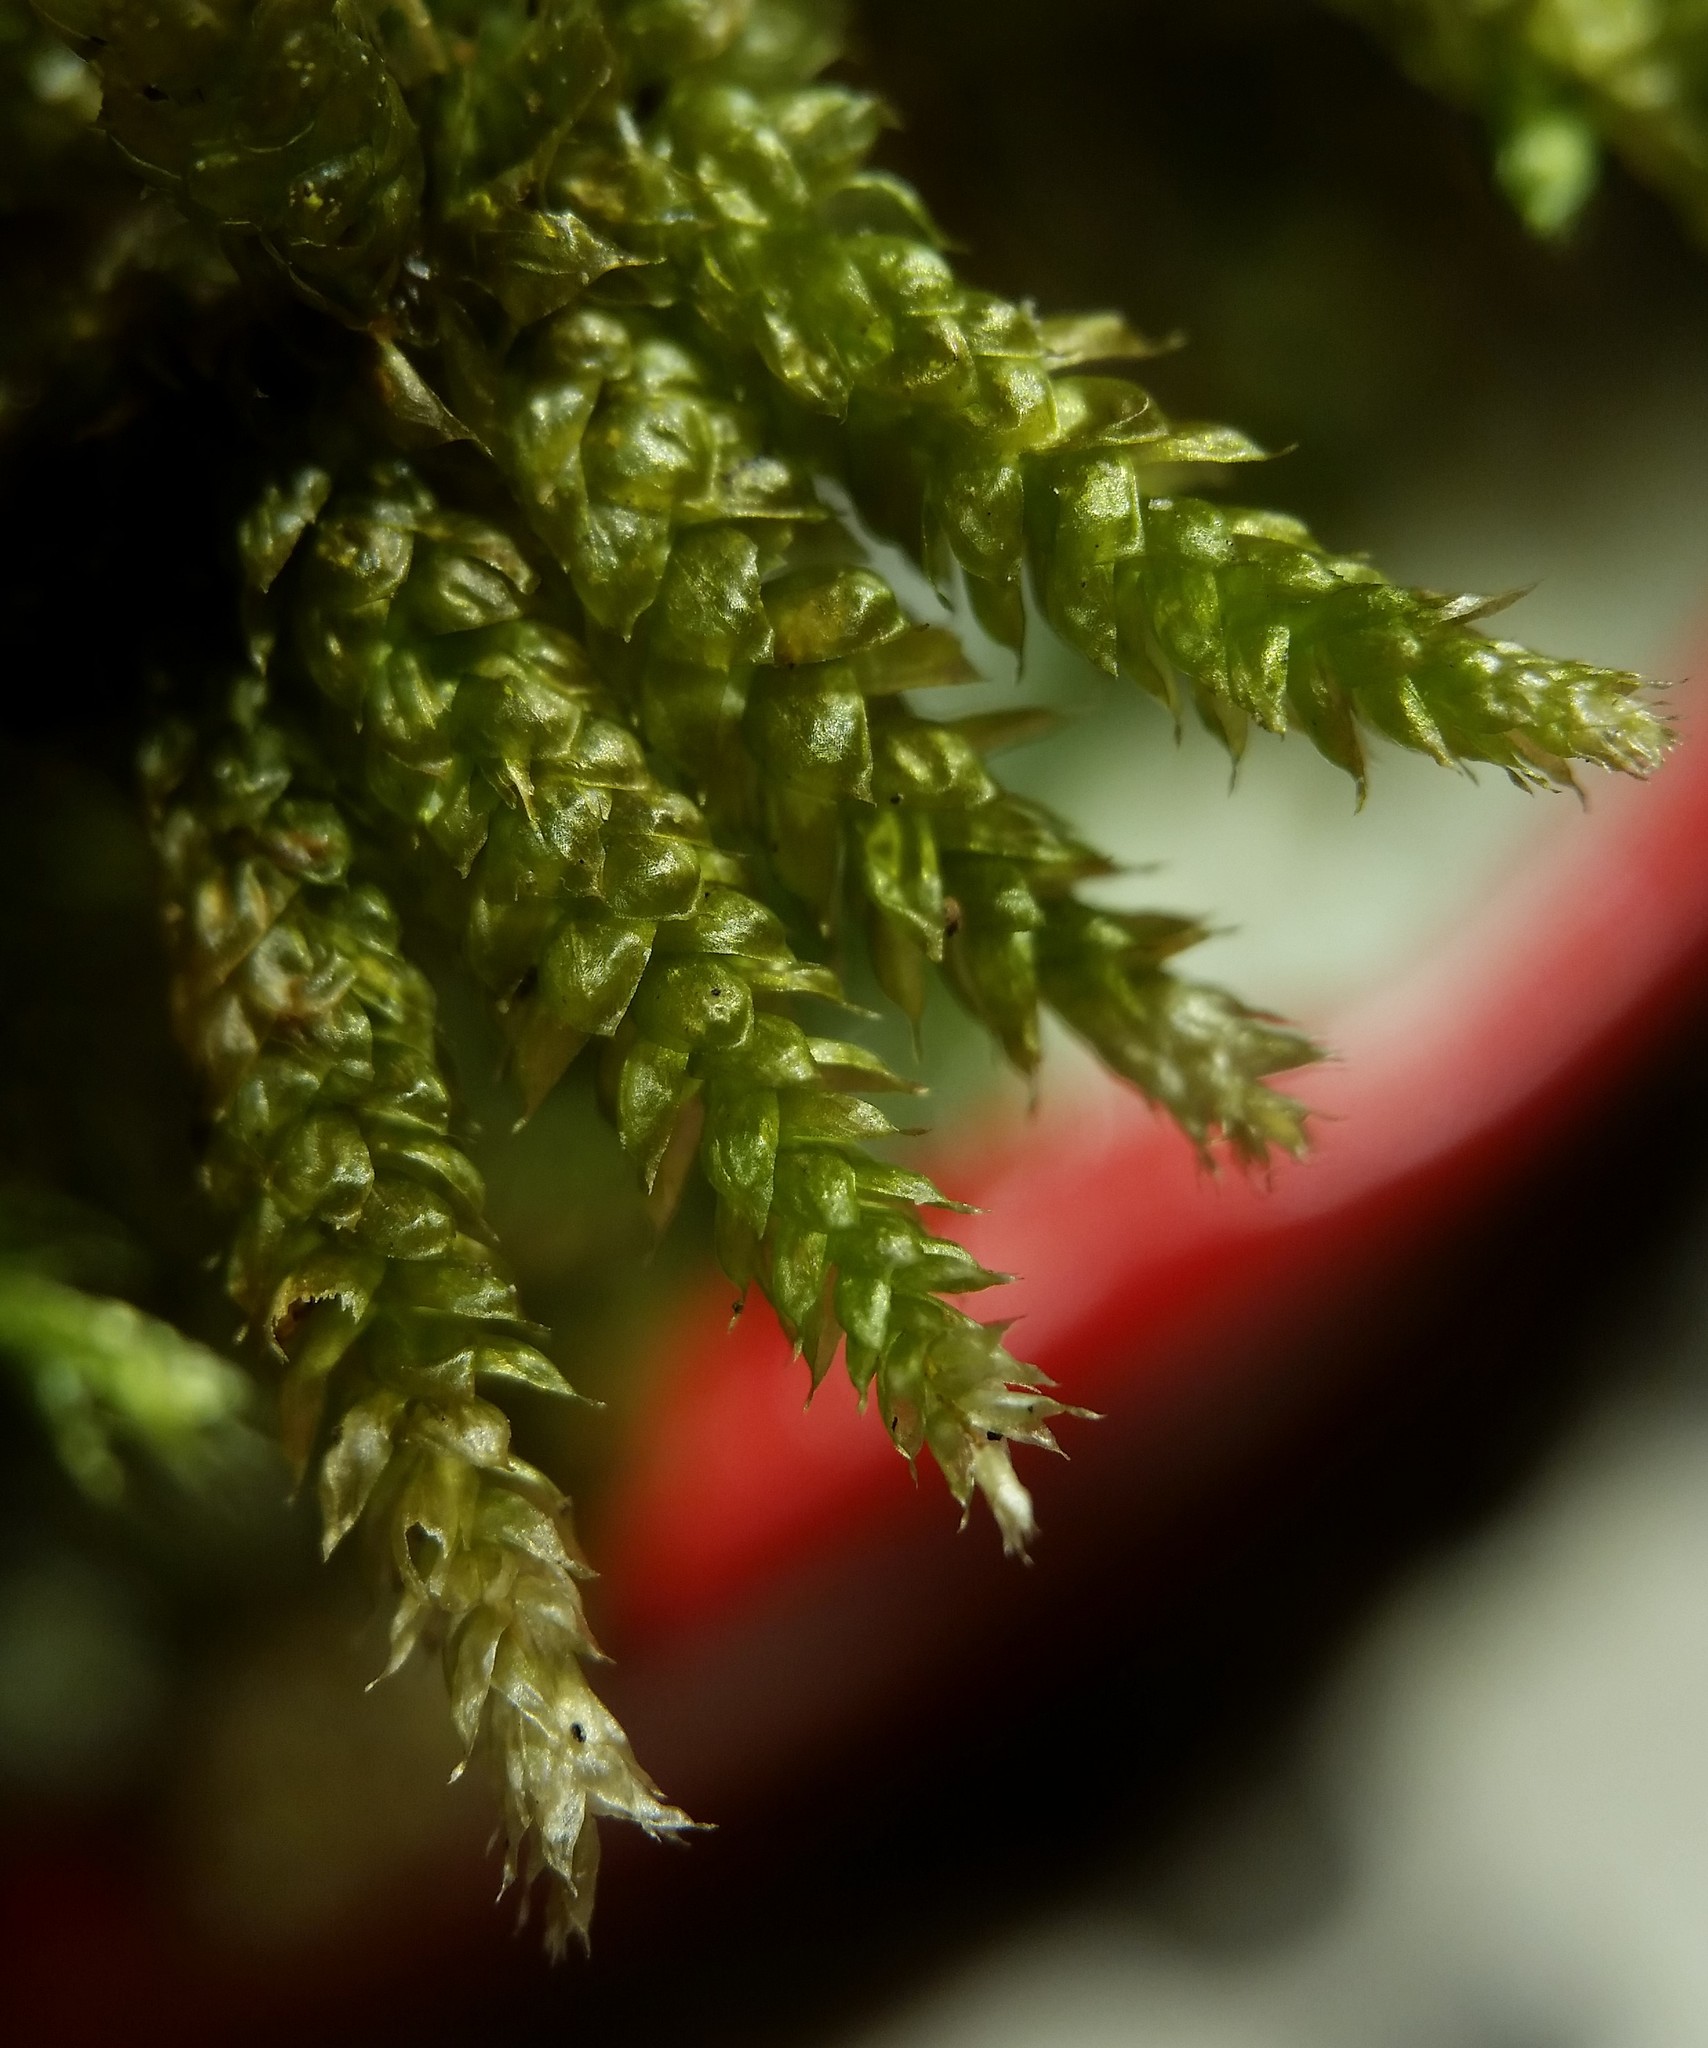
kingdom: Plantae
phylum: Bryophyta
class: Bryopsida
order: Hypnales
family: Brachytheciaceae
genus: Bryoandersonia
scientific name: Bryoandersonia illecebra
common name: Spoon-leaved moss
